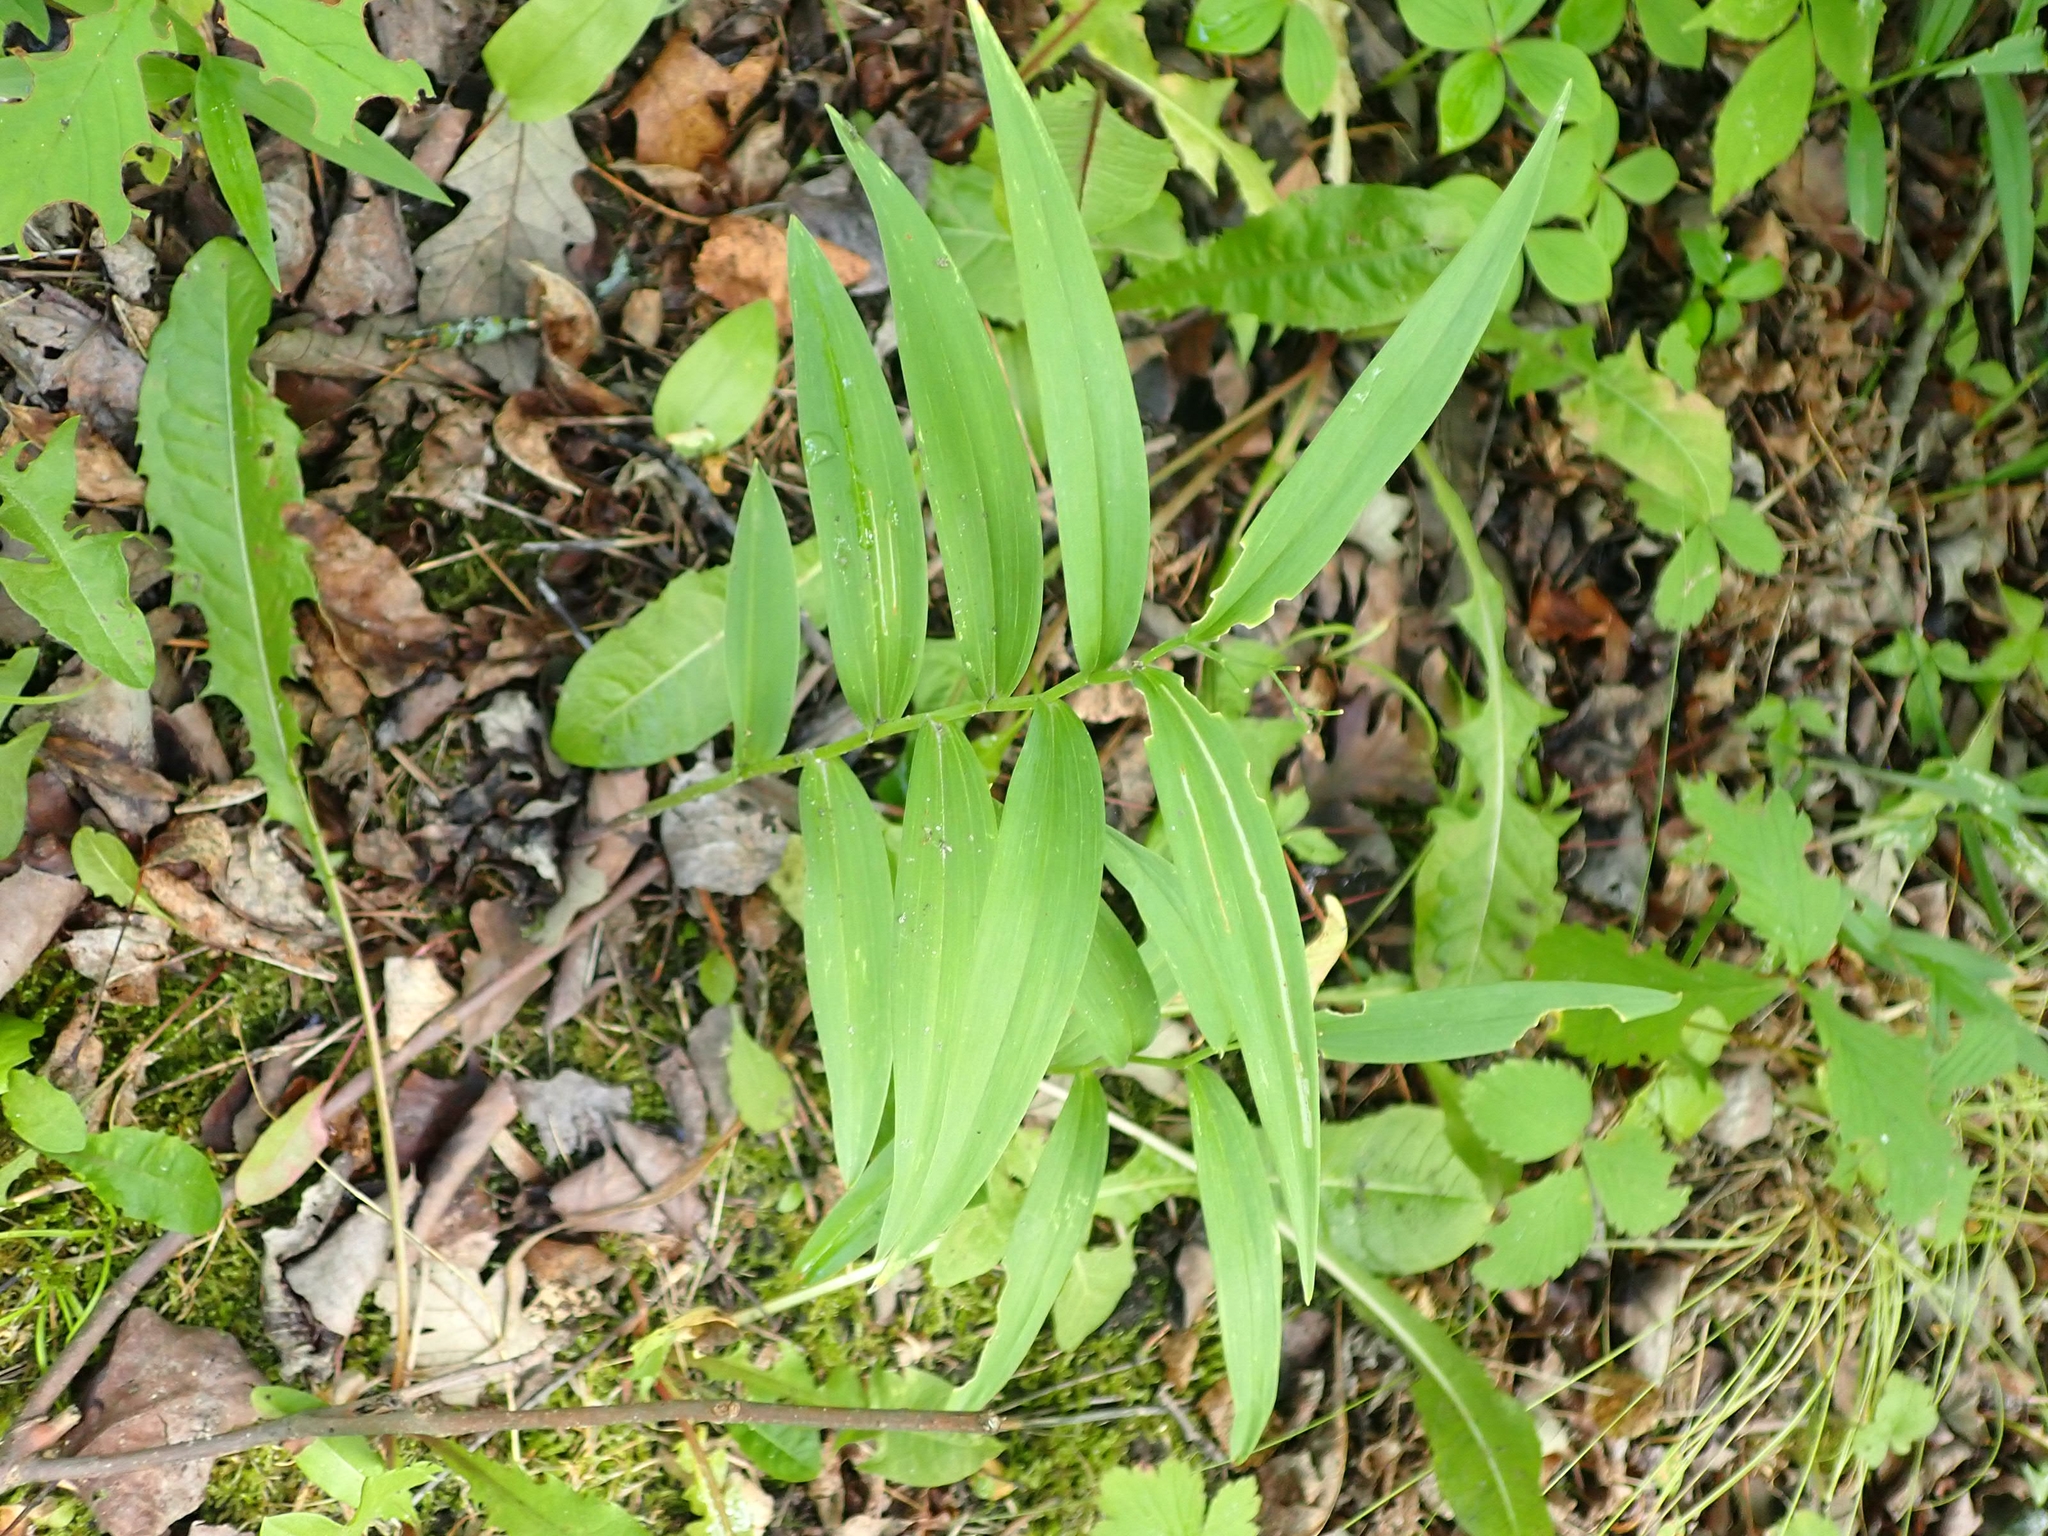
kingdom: Plantae
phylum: Tracheophyta
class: Liliopsida
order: Asparagales
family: Asparagaceae
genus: Maianthemum
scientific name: Maianthemum stellatum
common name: Little false solomon's seal
